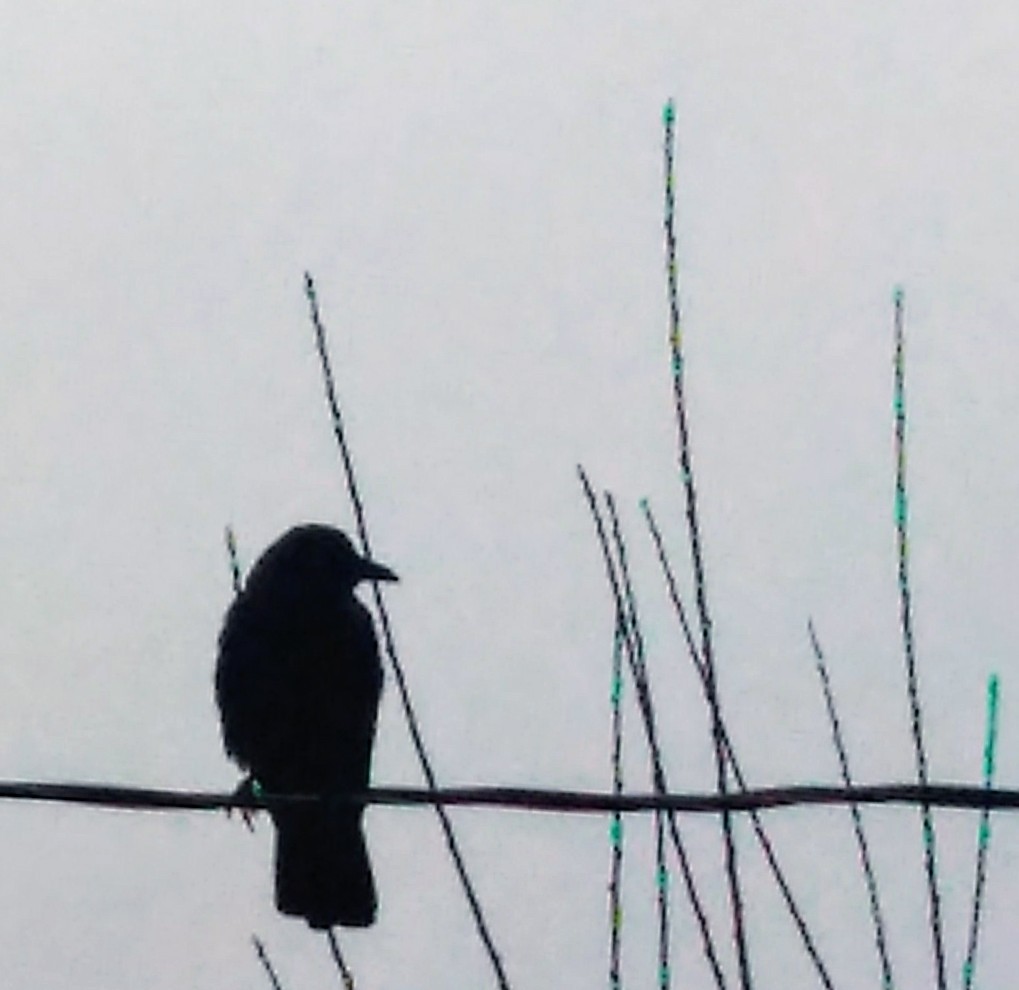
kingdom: Animalia
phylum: Chordata
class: Aves
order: Passeriformes
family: Corvidae
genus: Corvus
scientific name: Corvus brachyrhynchos
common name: American crow
